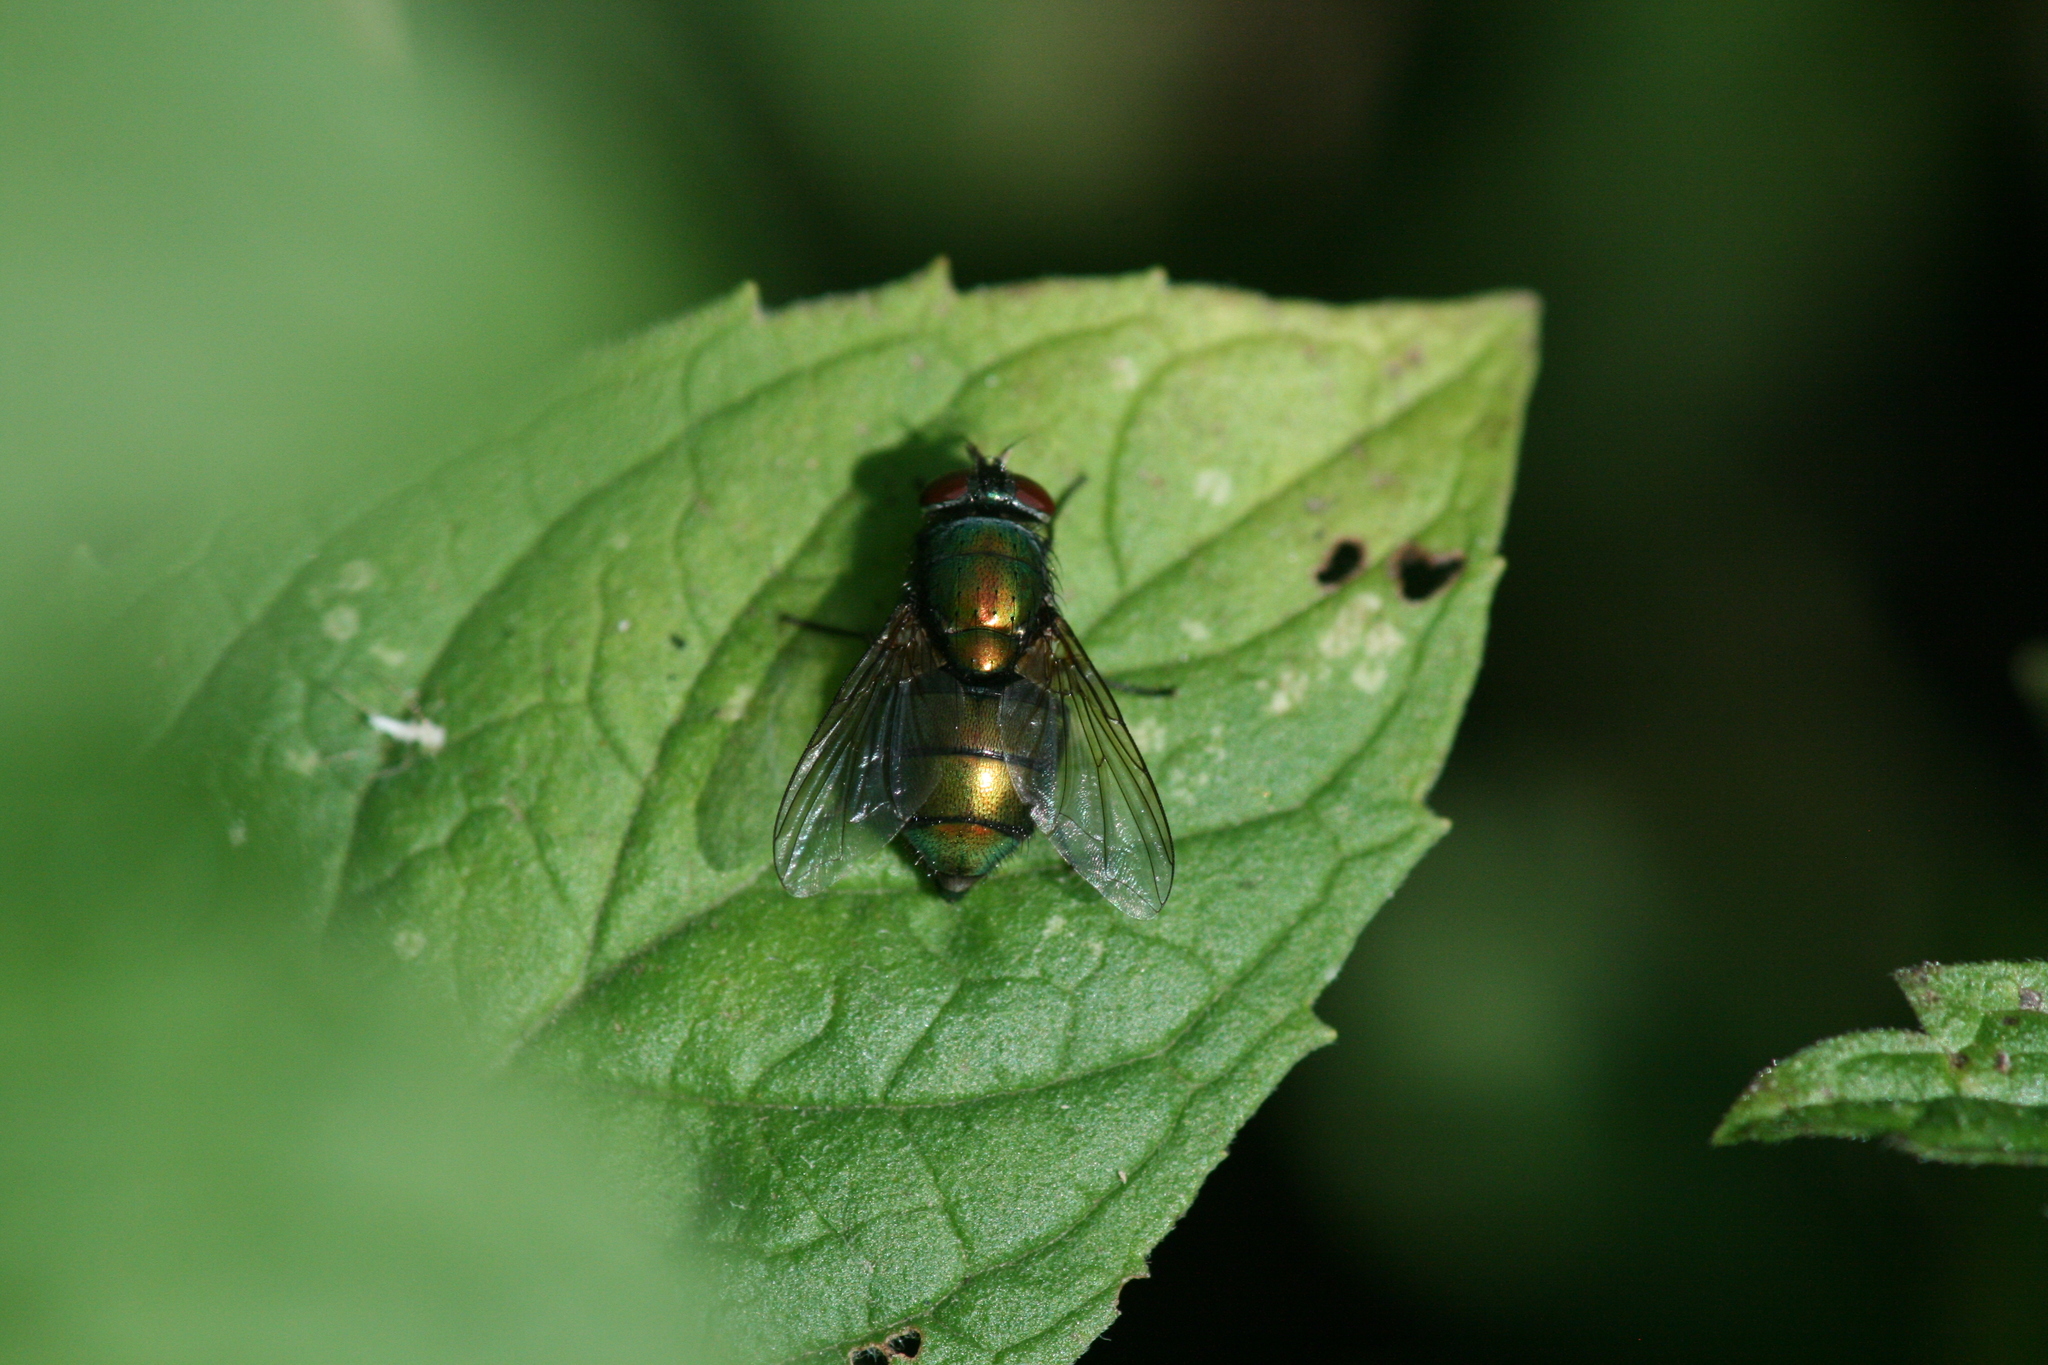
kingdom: Animalia
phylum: Arthropoda
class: Insecta
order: Diptera
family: Calliphoridae
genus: Lucilia
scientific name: Lucilia caesar
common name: Blow fly
